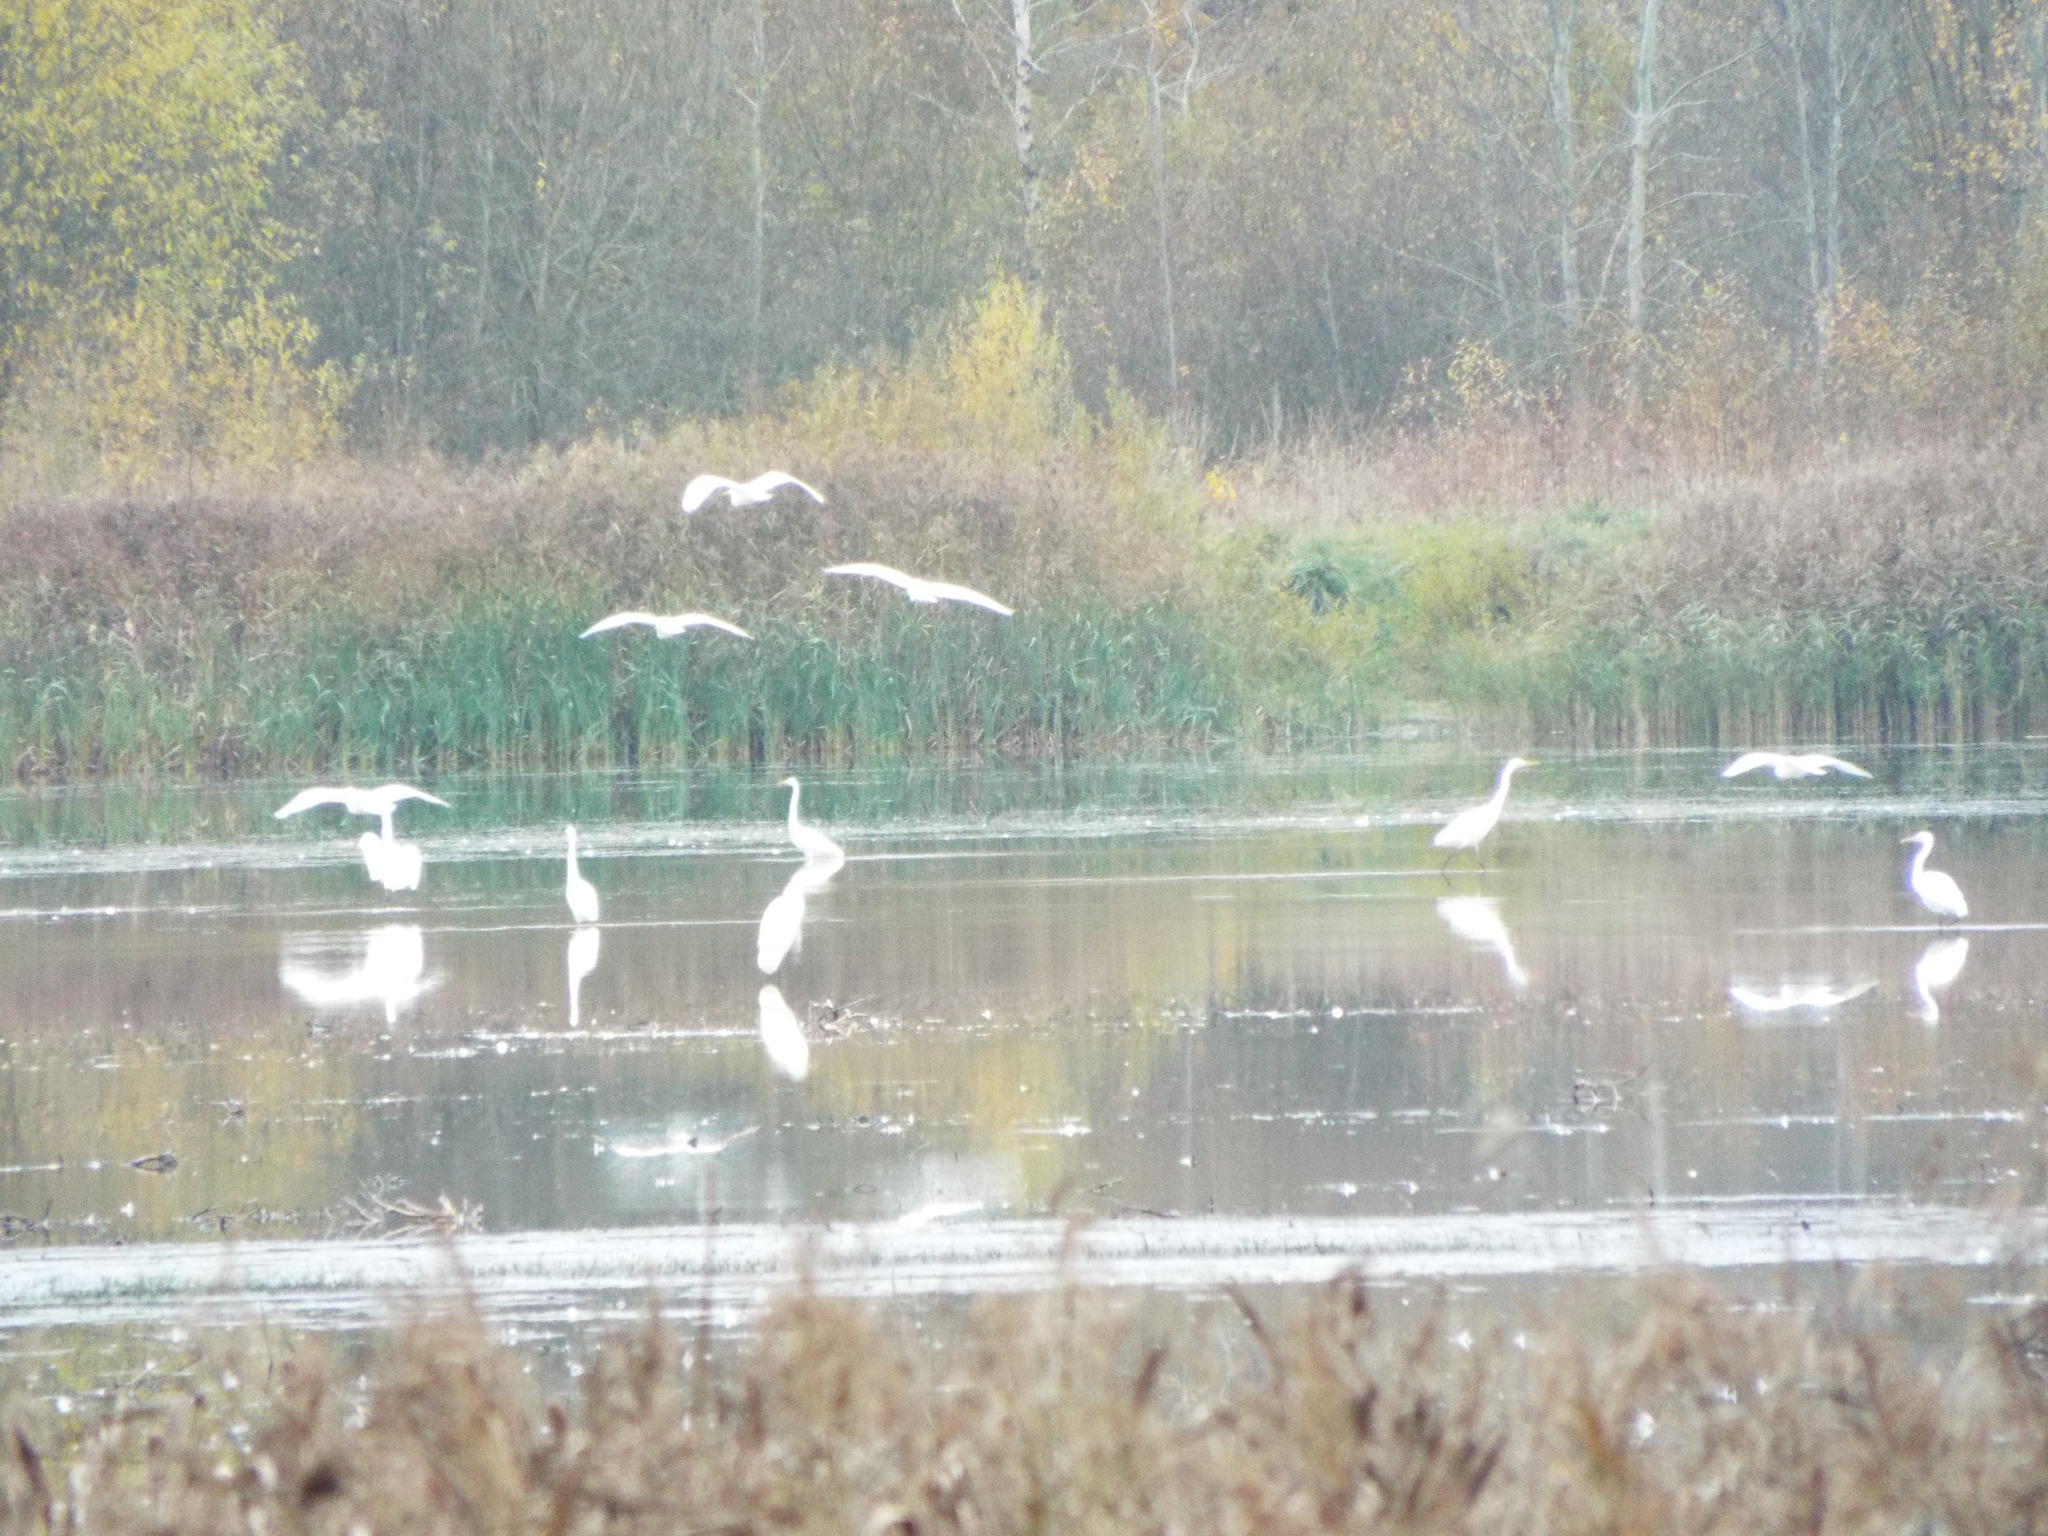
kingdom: Animalia
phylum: Chordata
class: Aves
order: Pelecaniformes
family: Ardeidae
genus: Ardea
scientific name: Ardea alba
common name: Great egret
